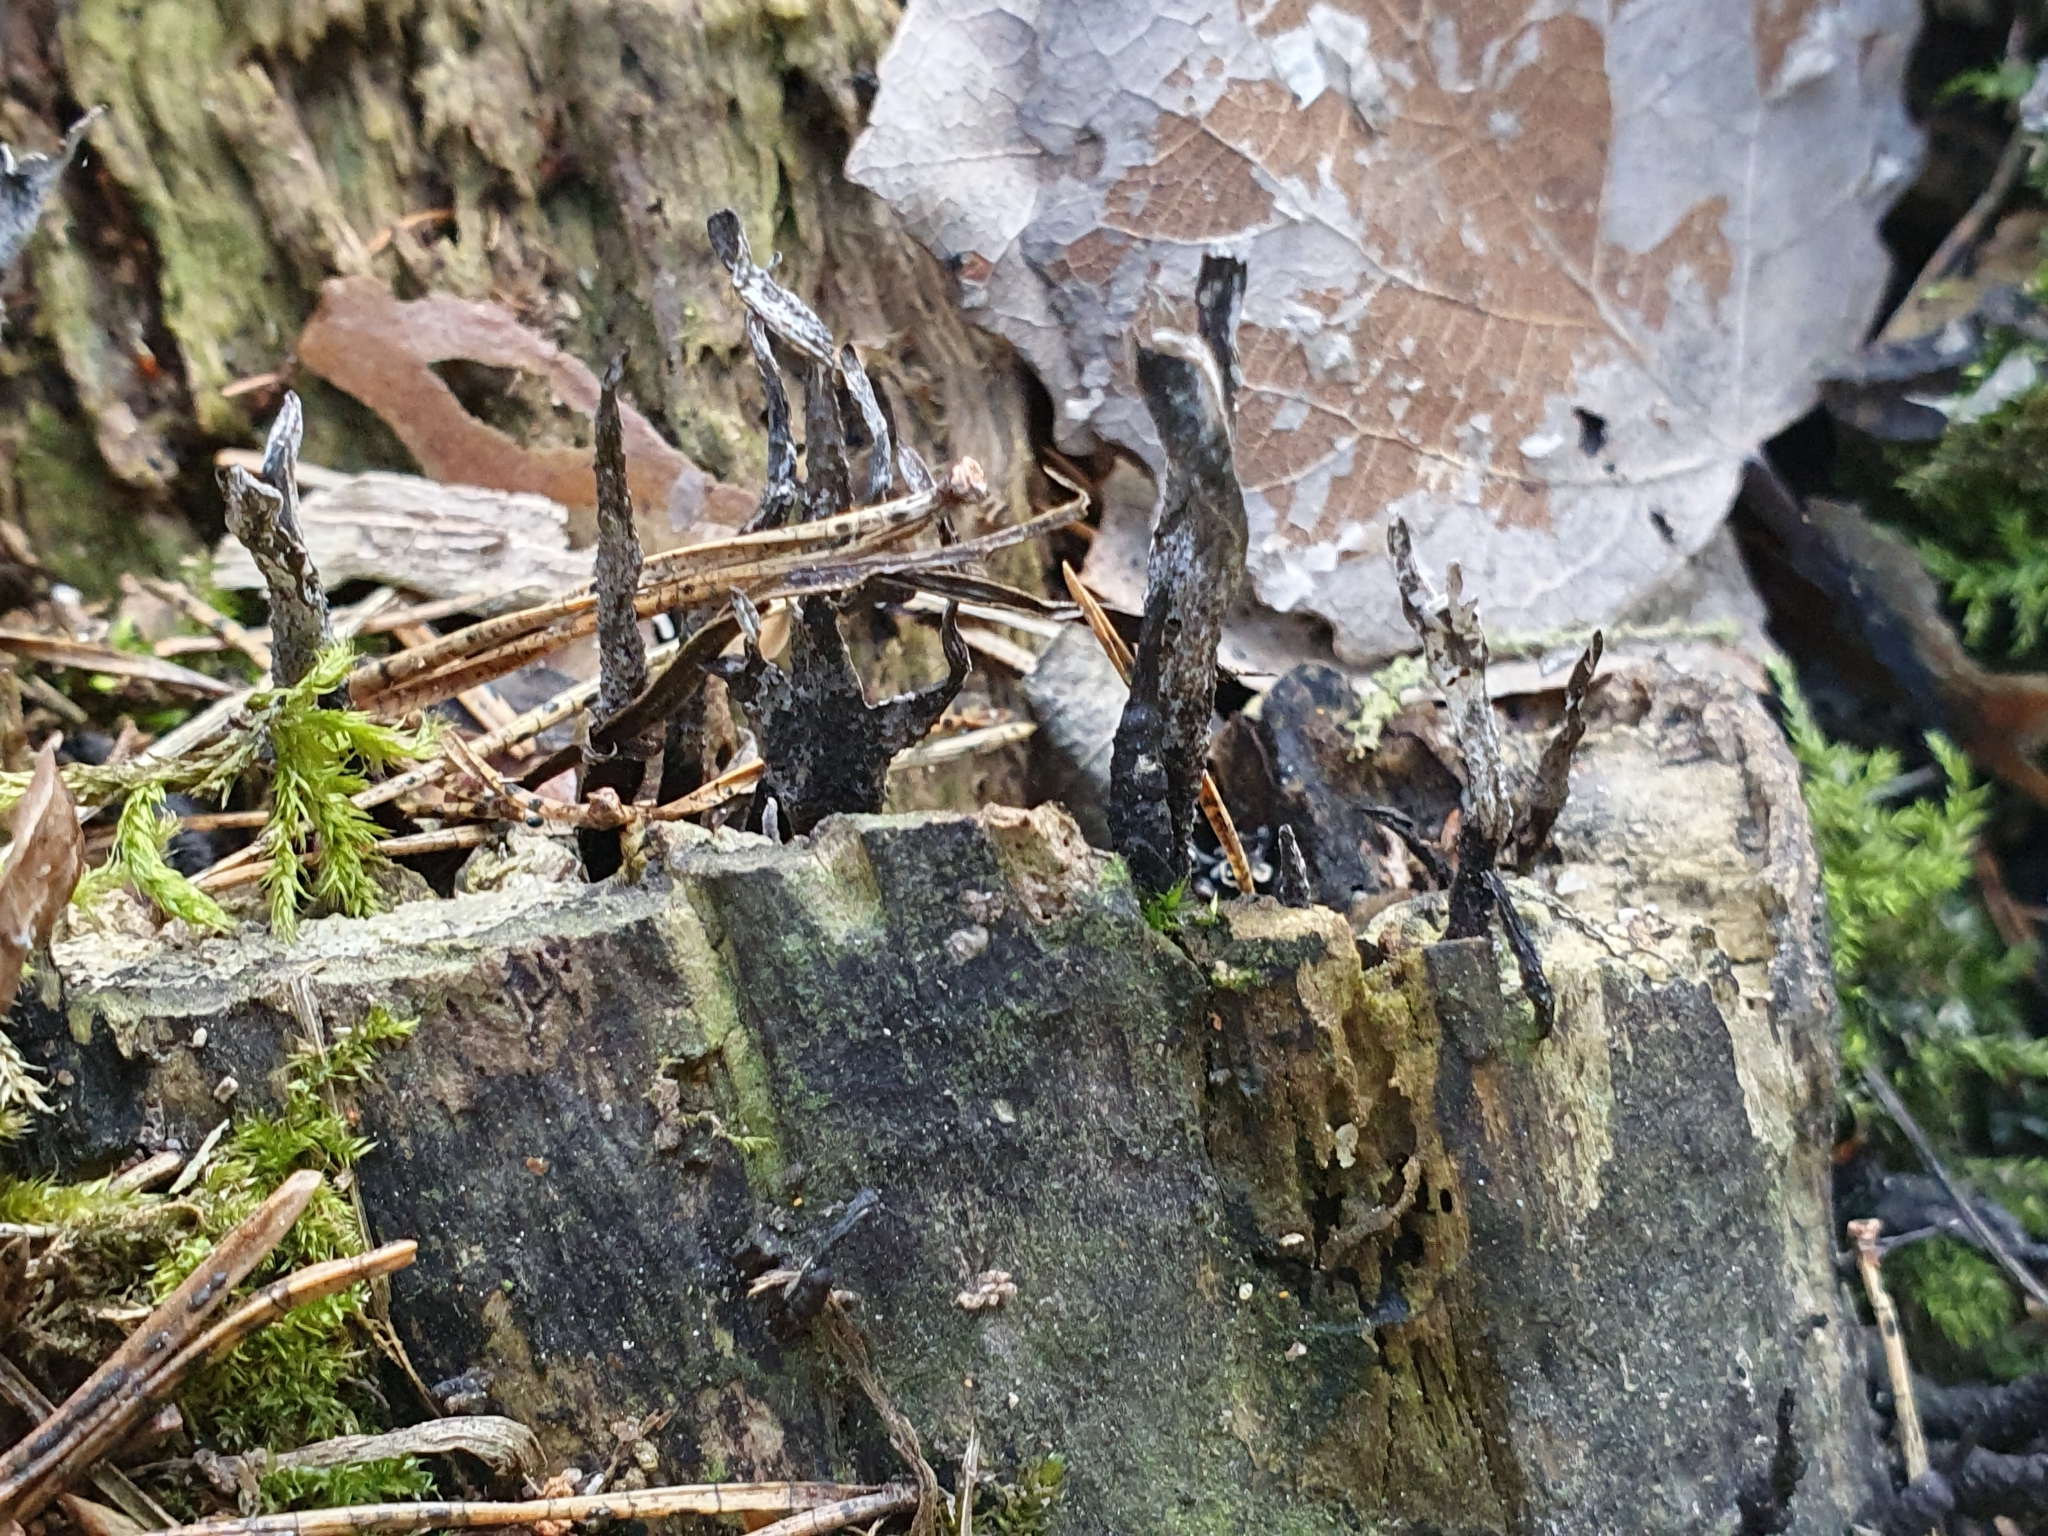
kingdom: Fungi
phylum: Ascomycota
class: Sordariomycetes
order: Xylariales
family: Xylariaceae
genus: Xylaria
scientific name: Xylaria hypoxylon
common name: Candle-snuff fungus
